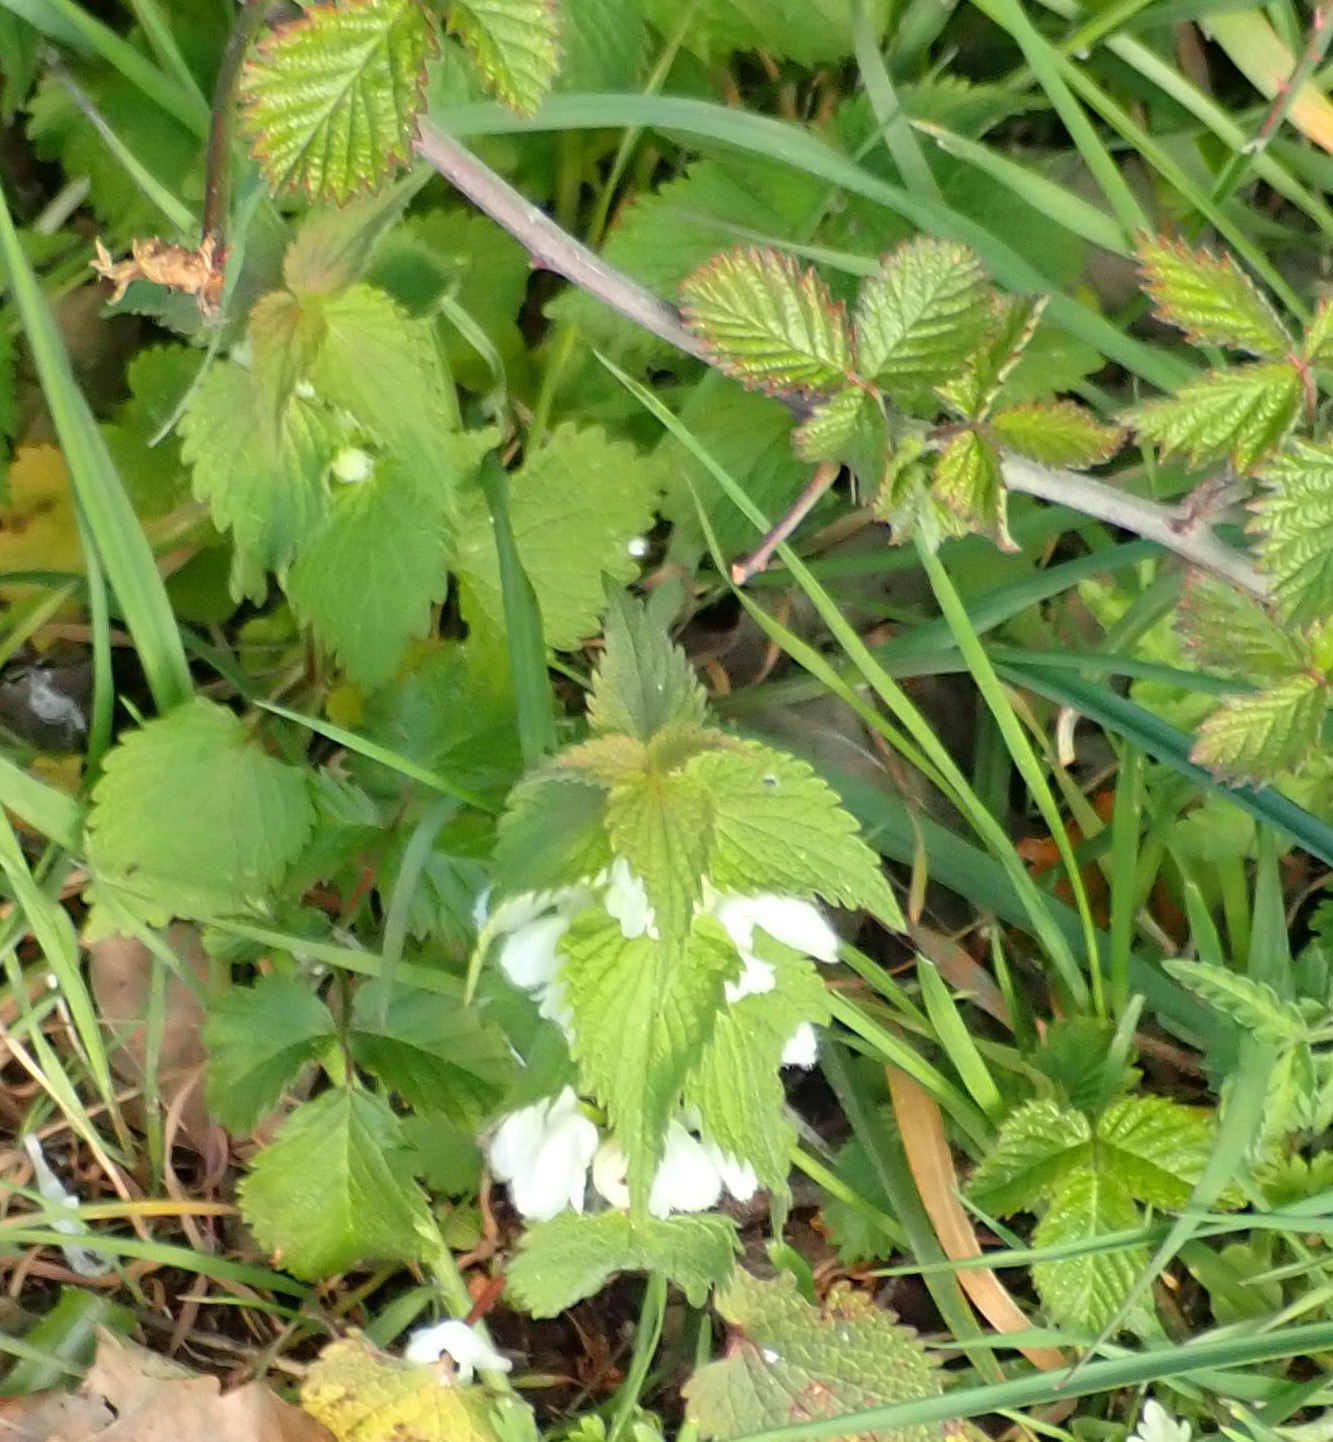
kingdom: Plantae
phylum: Tracheophyta
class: Magnoliopsida
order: Lamiales
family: Lamiaceae
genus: Lamium
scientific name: Lamium album
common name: White dead-nettle
